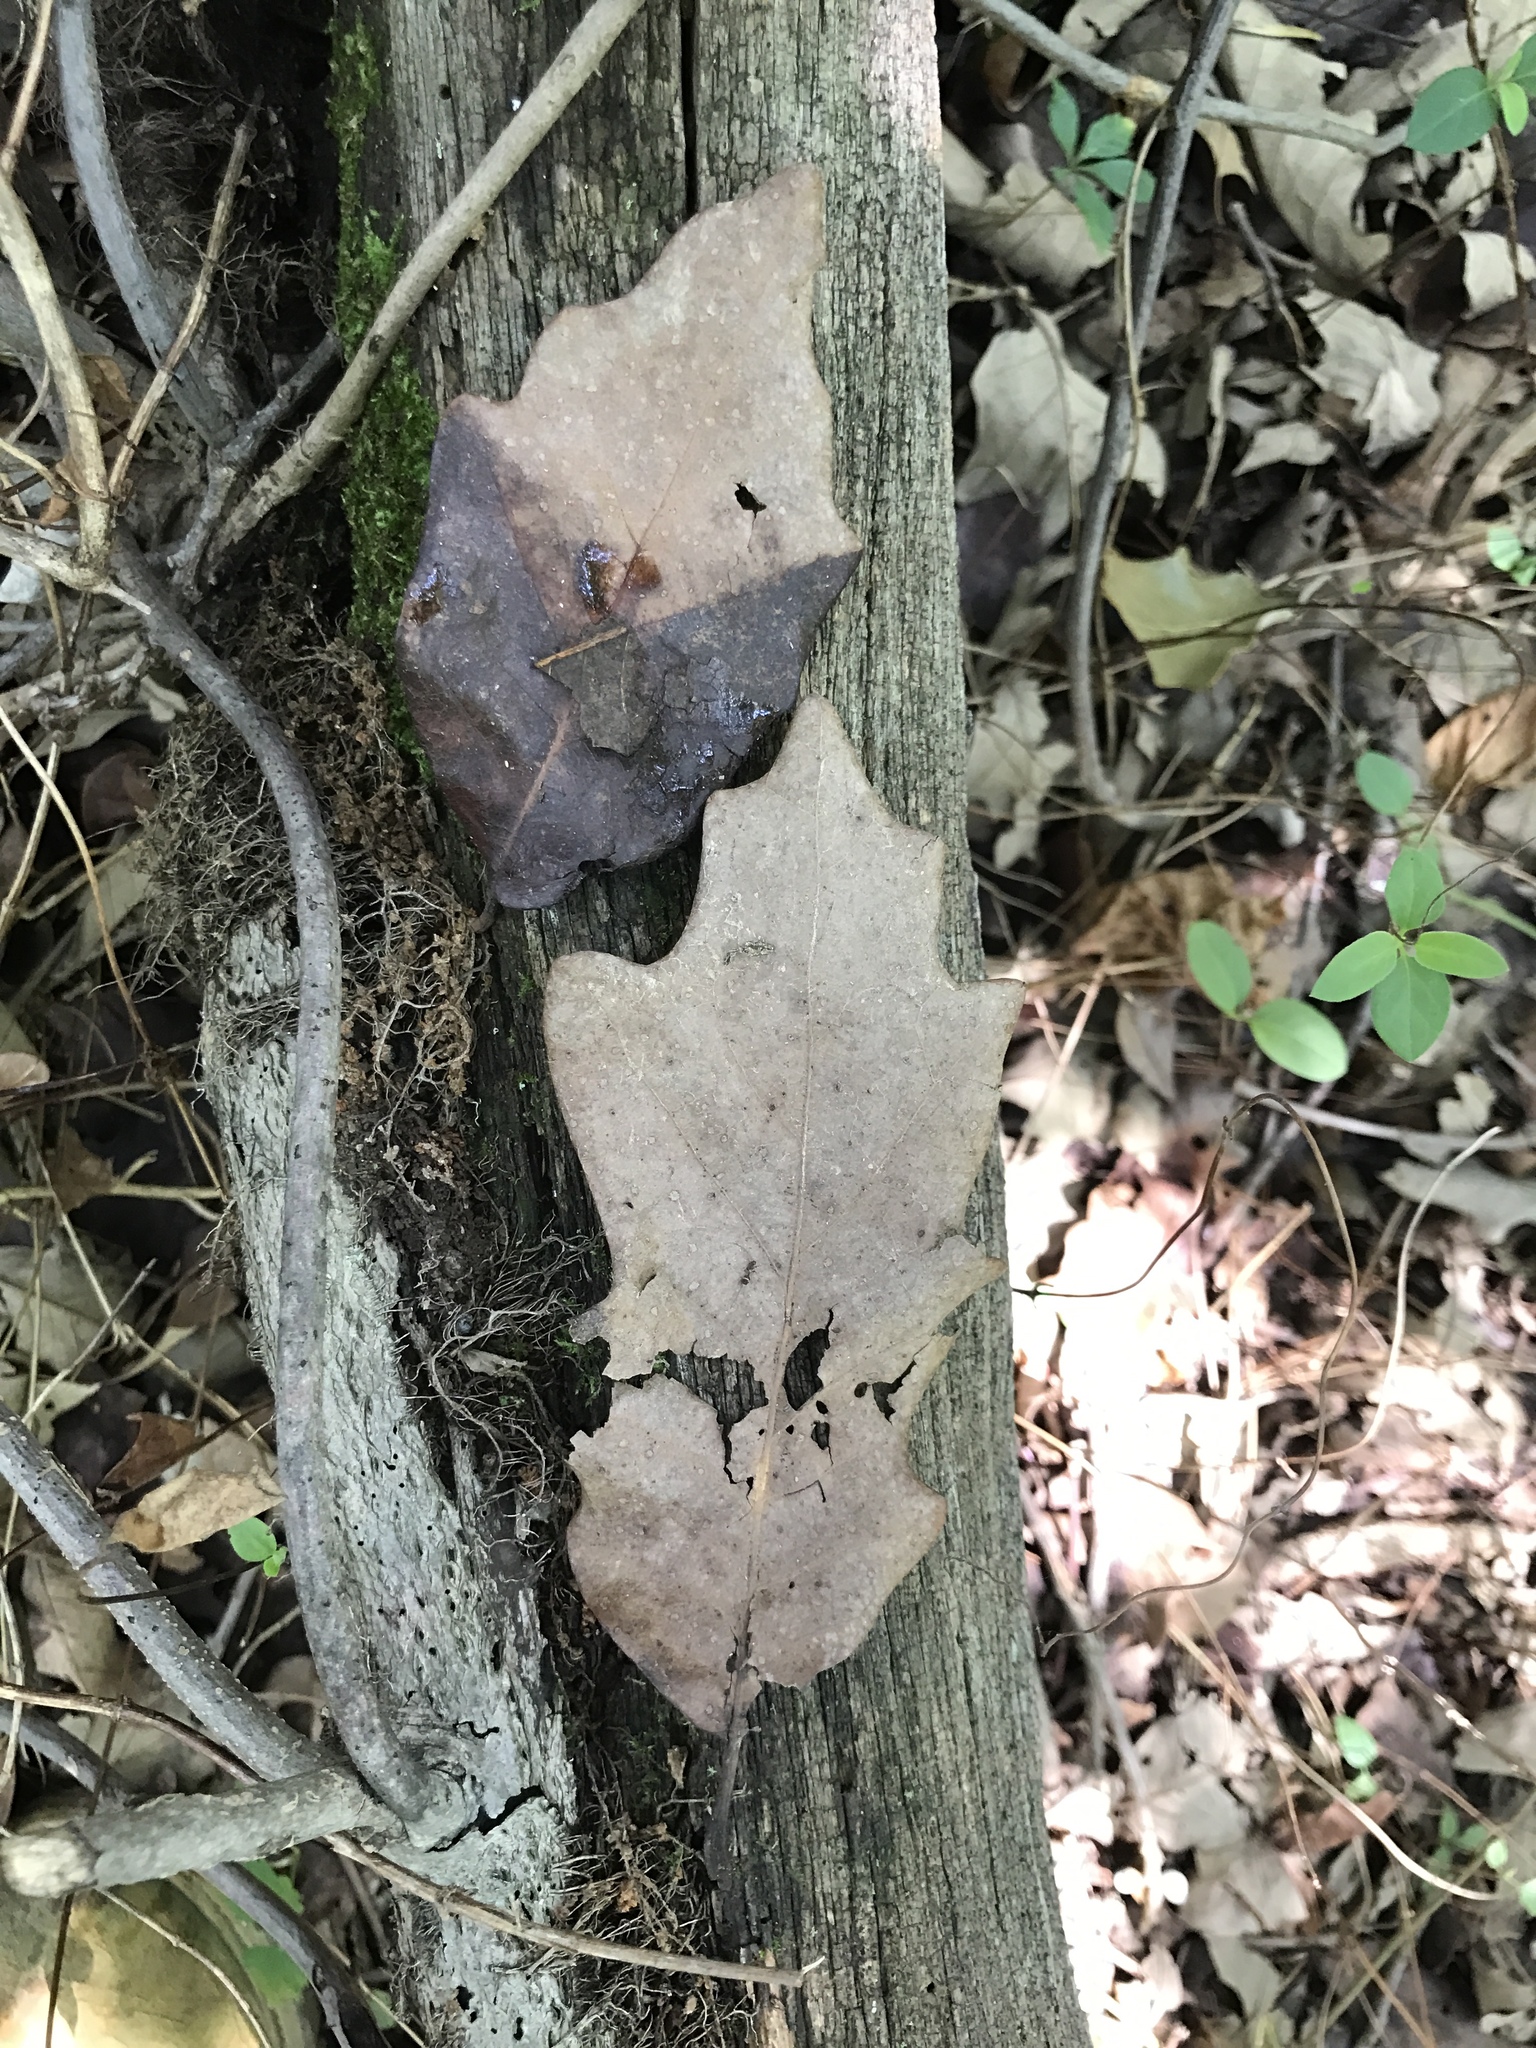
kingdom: Plantae
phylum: Tracheophyta
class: Magnoliopsida
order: Fagales
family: Fagaceae
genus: Quercus
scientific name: Quercus bicolor
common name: Swamp white oak
